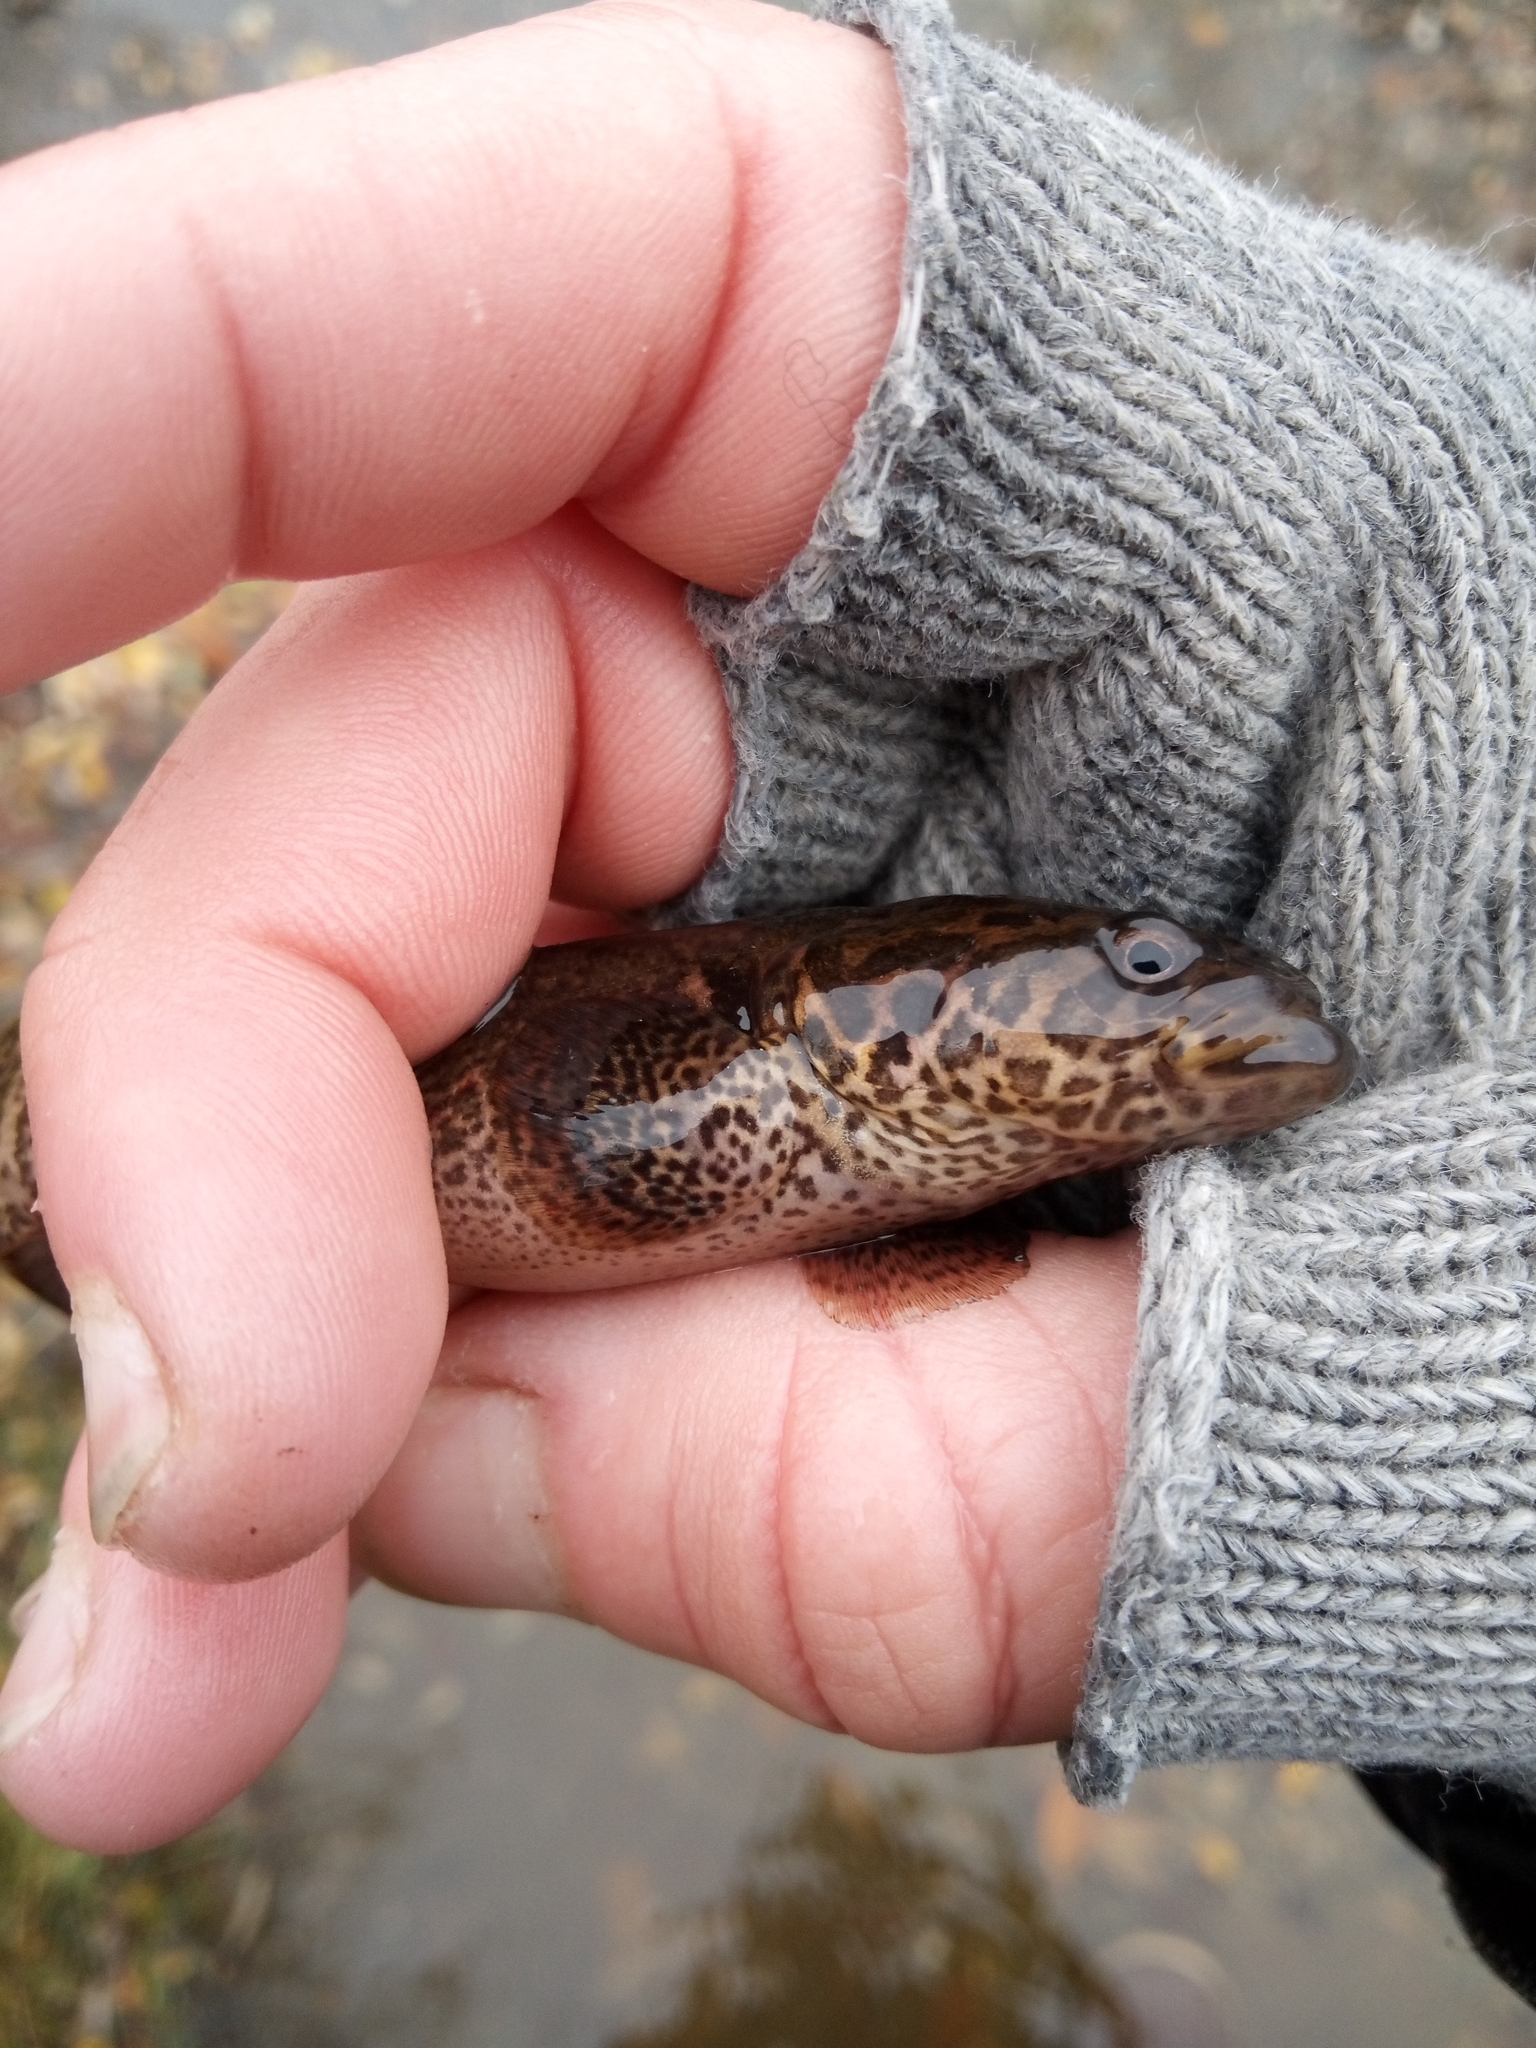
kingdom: Animalia
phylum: Chordata
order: Esociformes
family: Umbridae
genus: Dallia
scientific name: Dallia pectoralis
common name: Alaska blackfish
